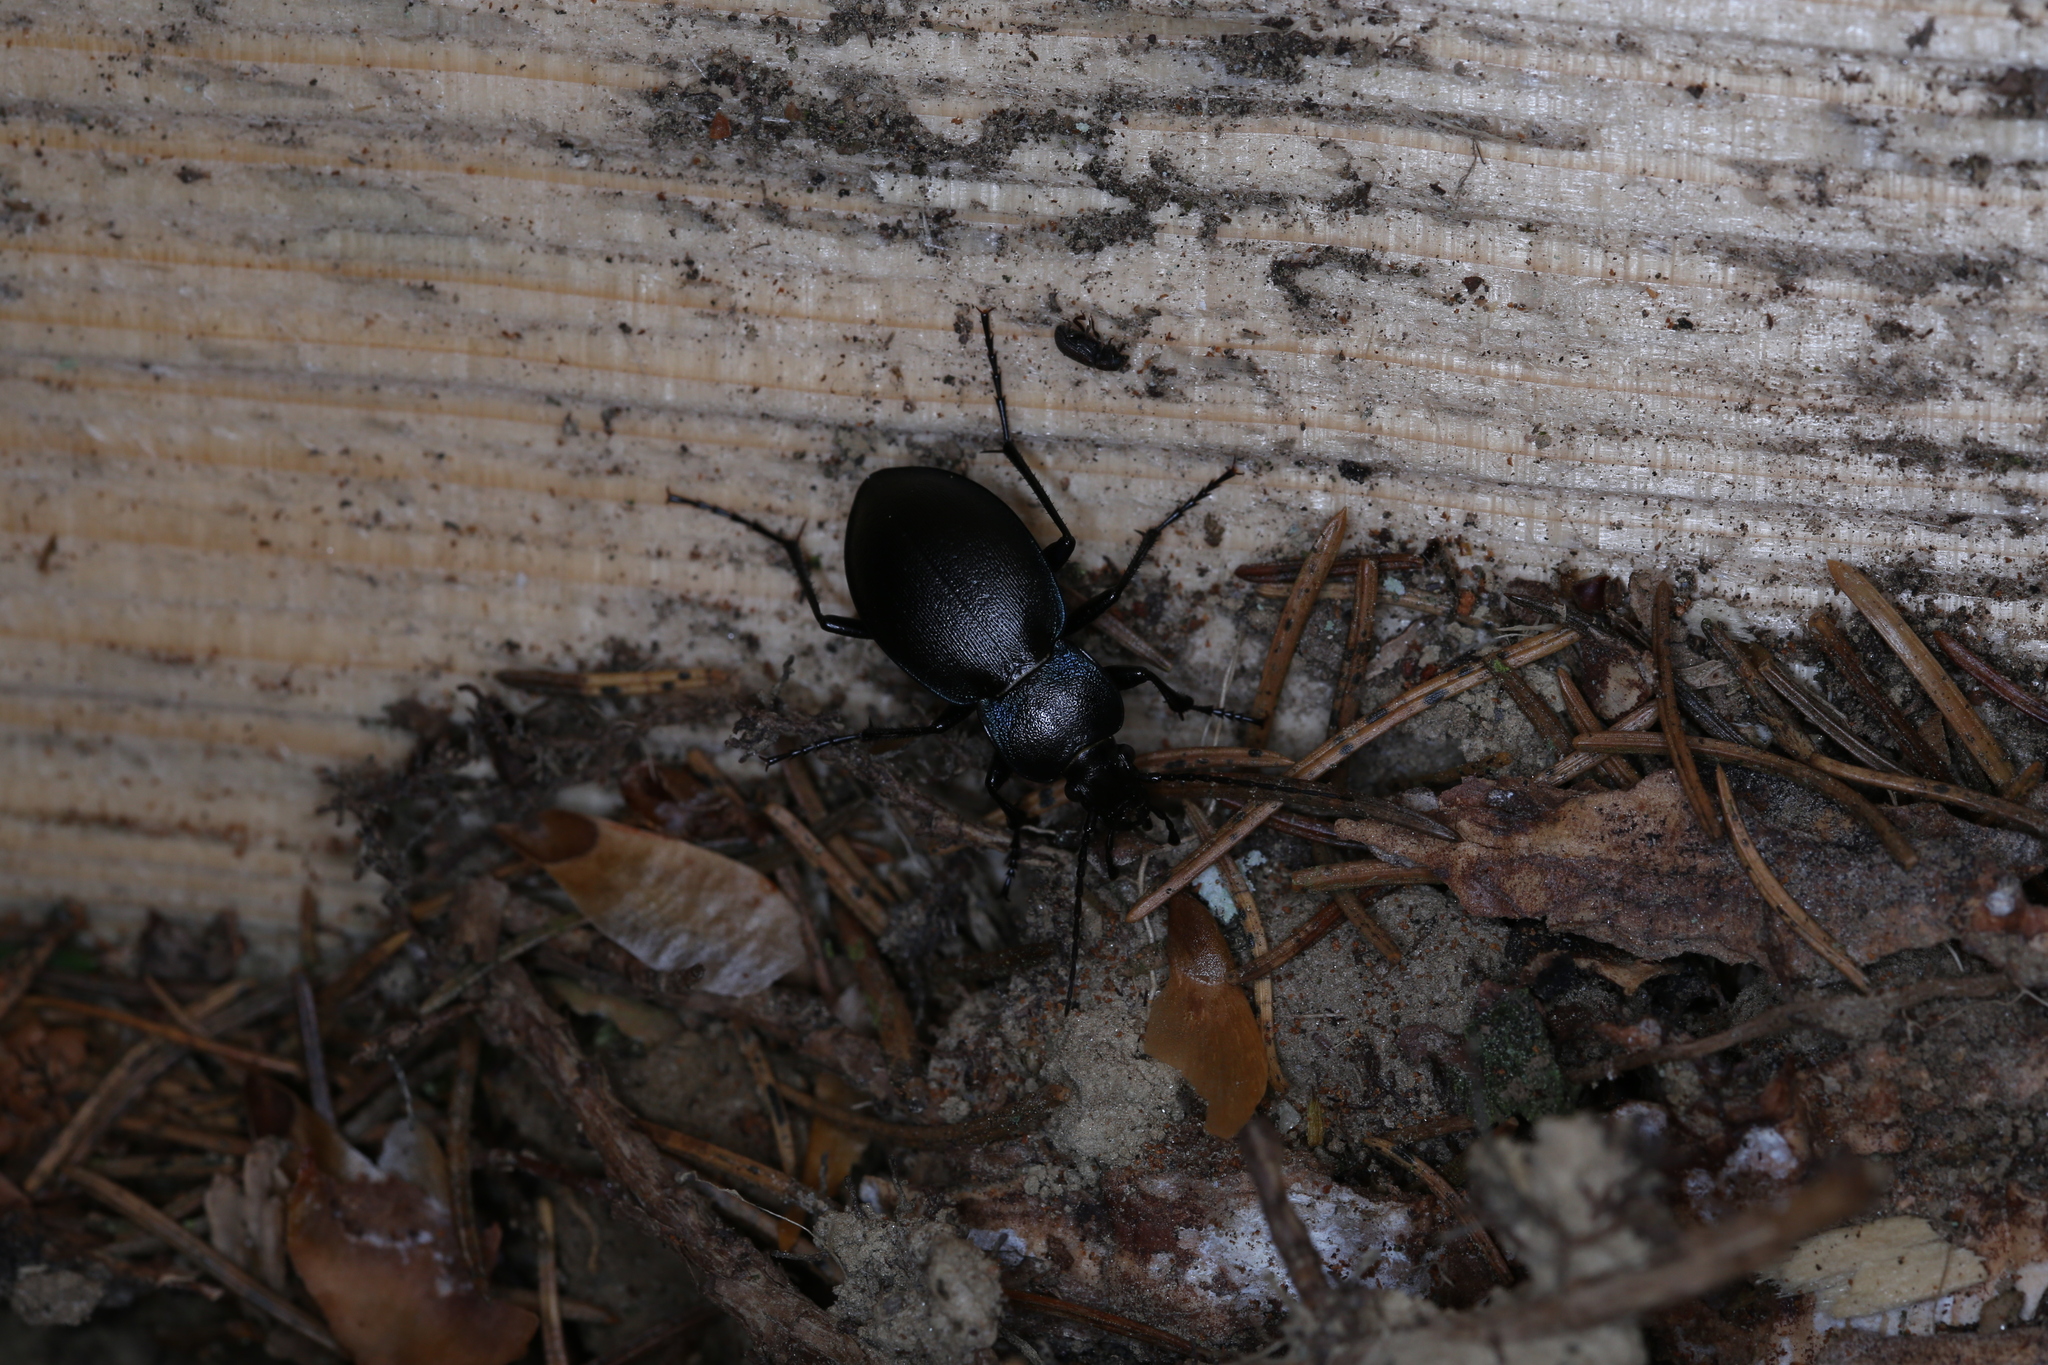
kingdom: Animalia
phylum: Arthropoda
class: Insecta
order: Coleoptera
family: Carabidae
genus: Carabus
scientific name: Carabus convexus
